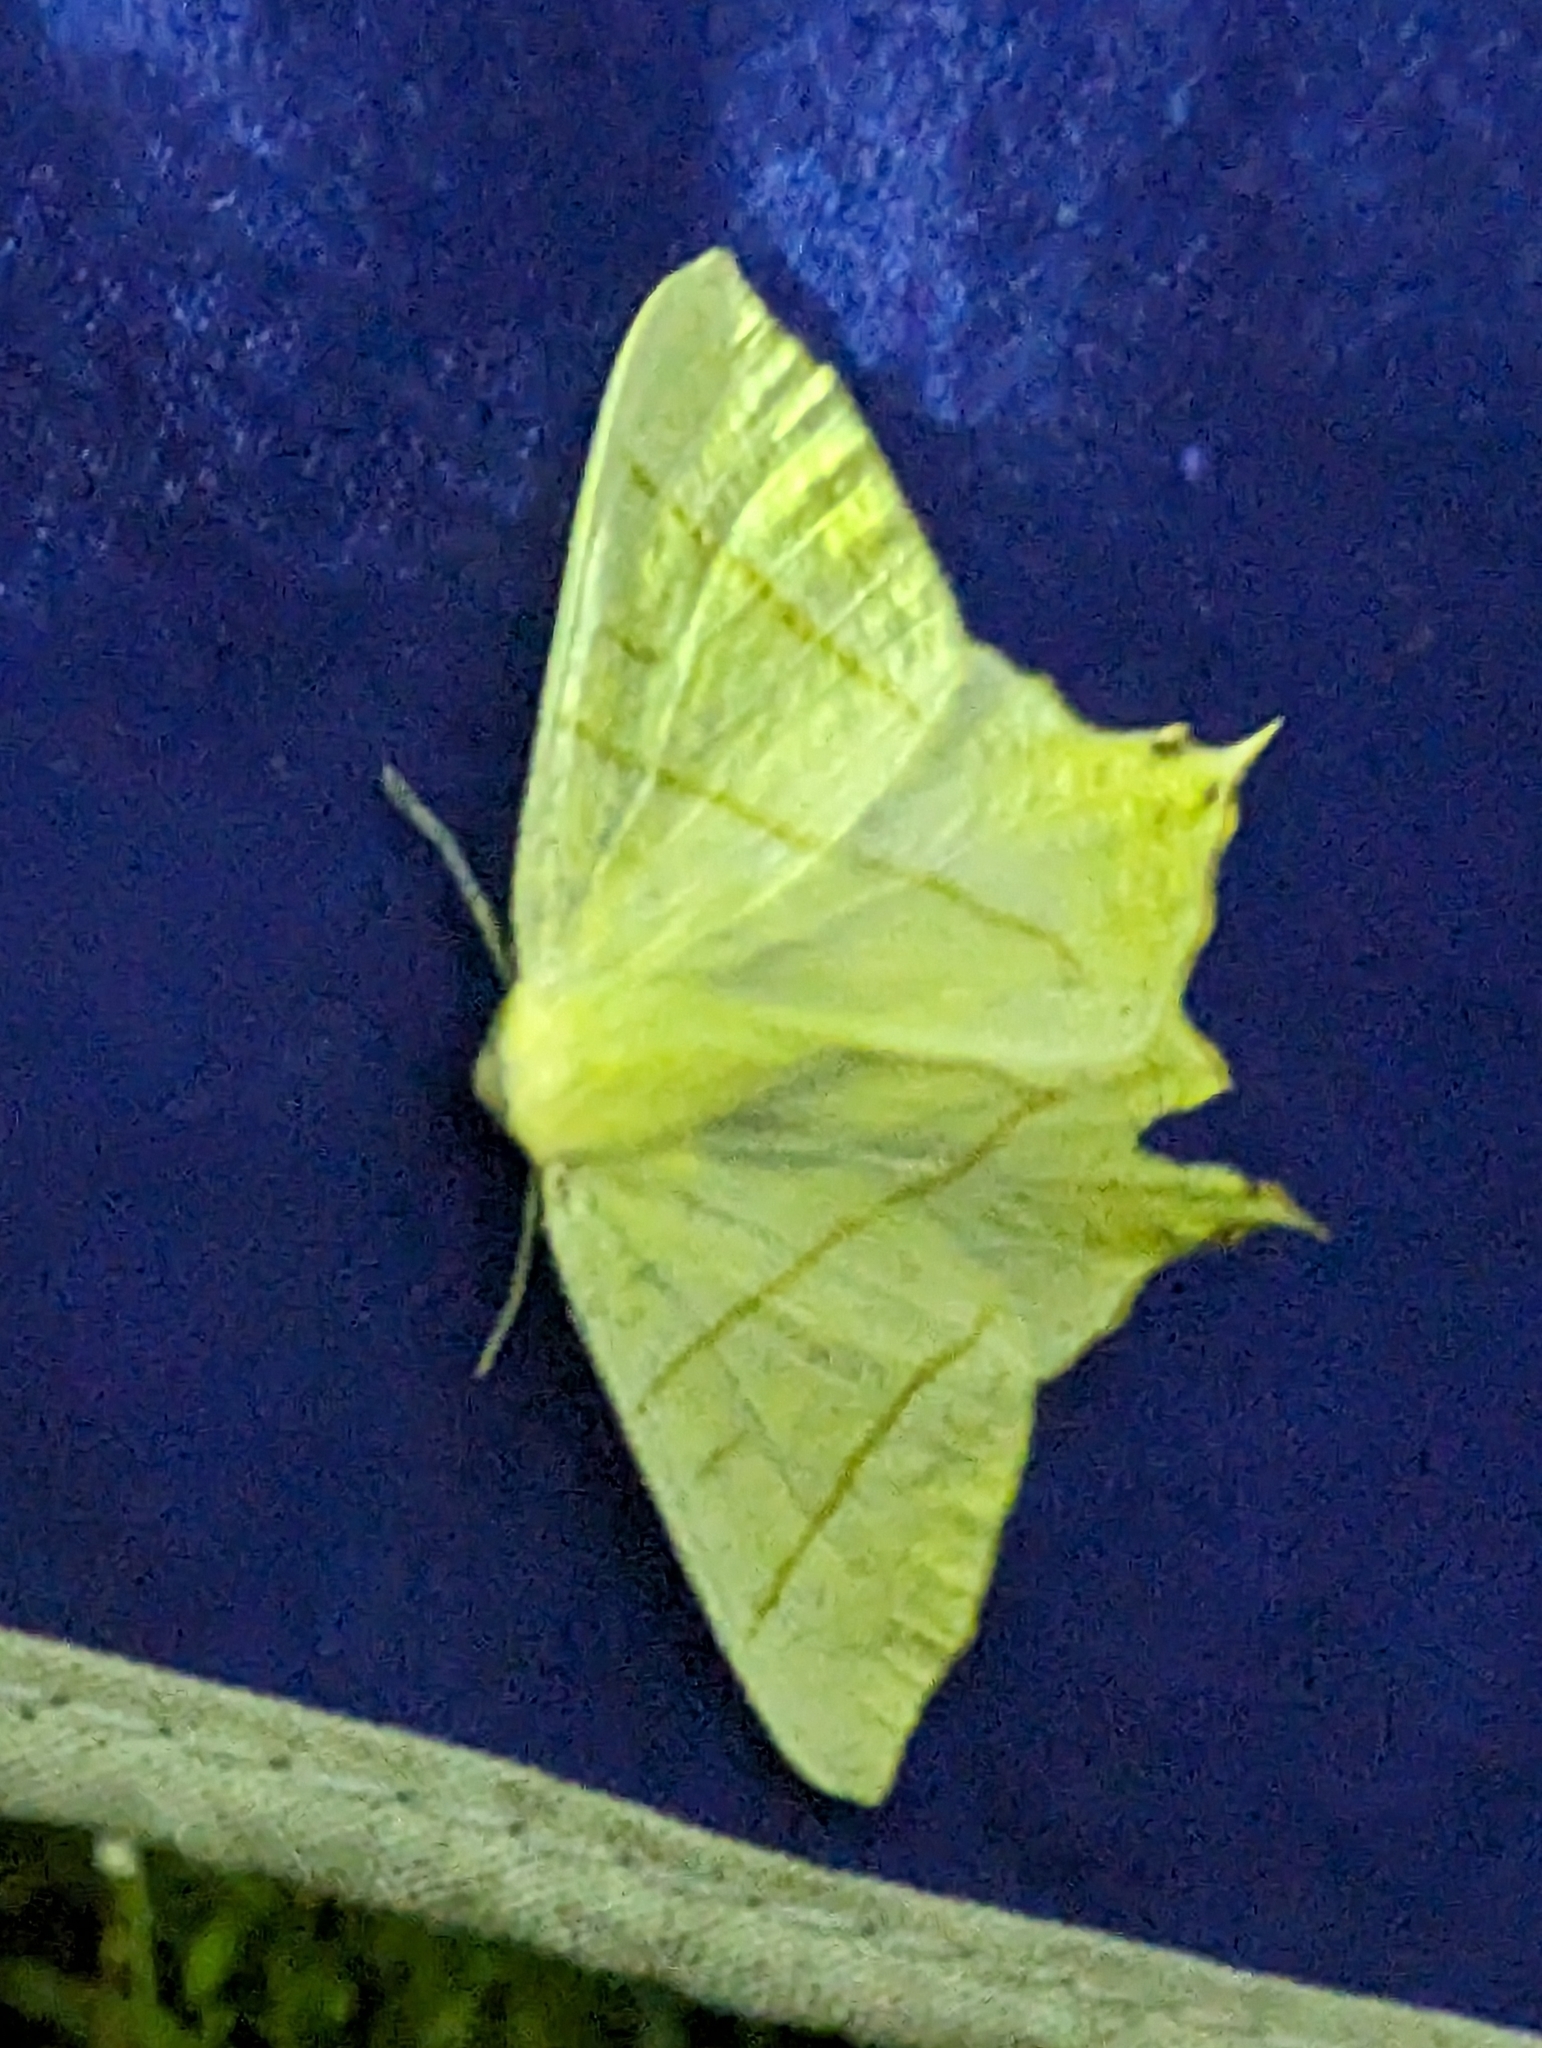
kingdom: Animalia
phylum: Arthropoda
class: Insecta
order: Lepidoptera
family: Geometridae
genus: Ourapteryx
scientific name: Ourapteryx sambucaria
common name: Swallow-tailed moth
